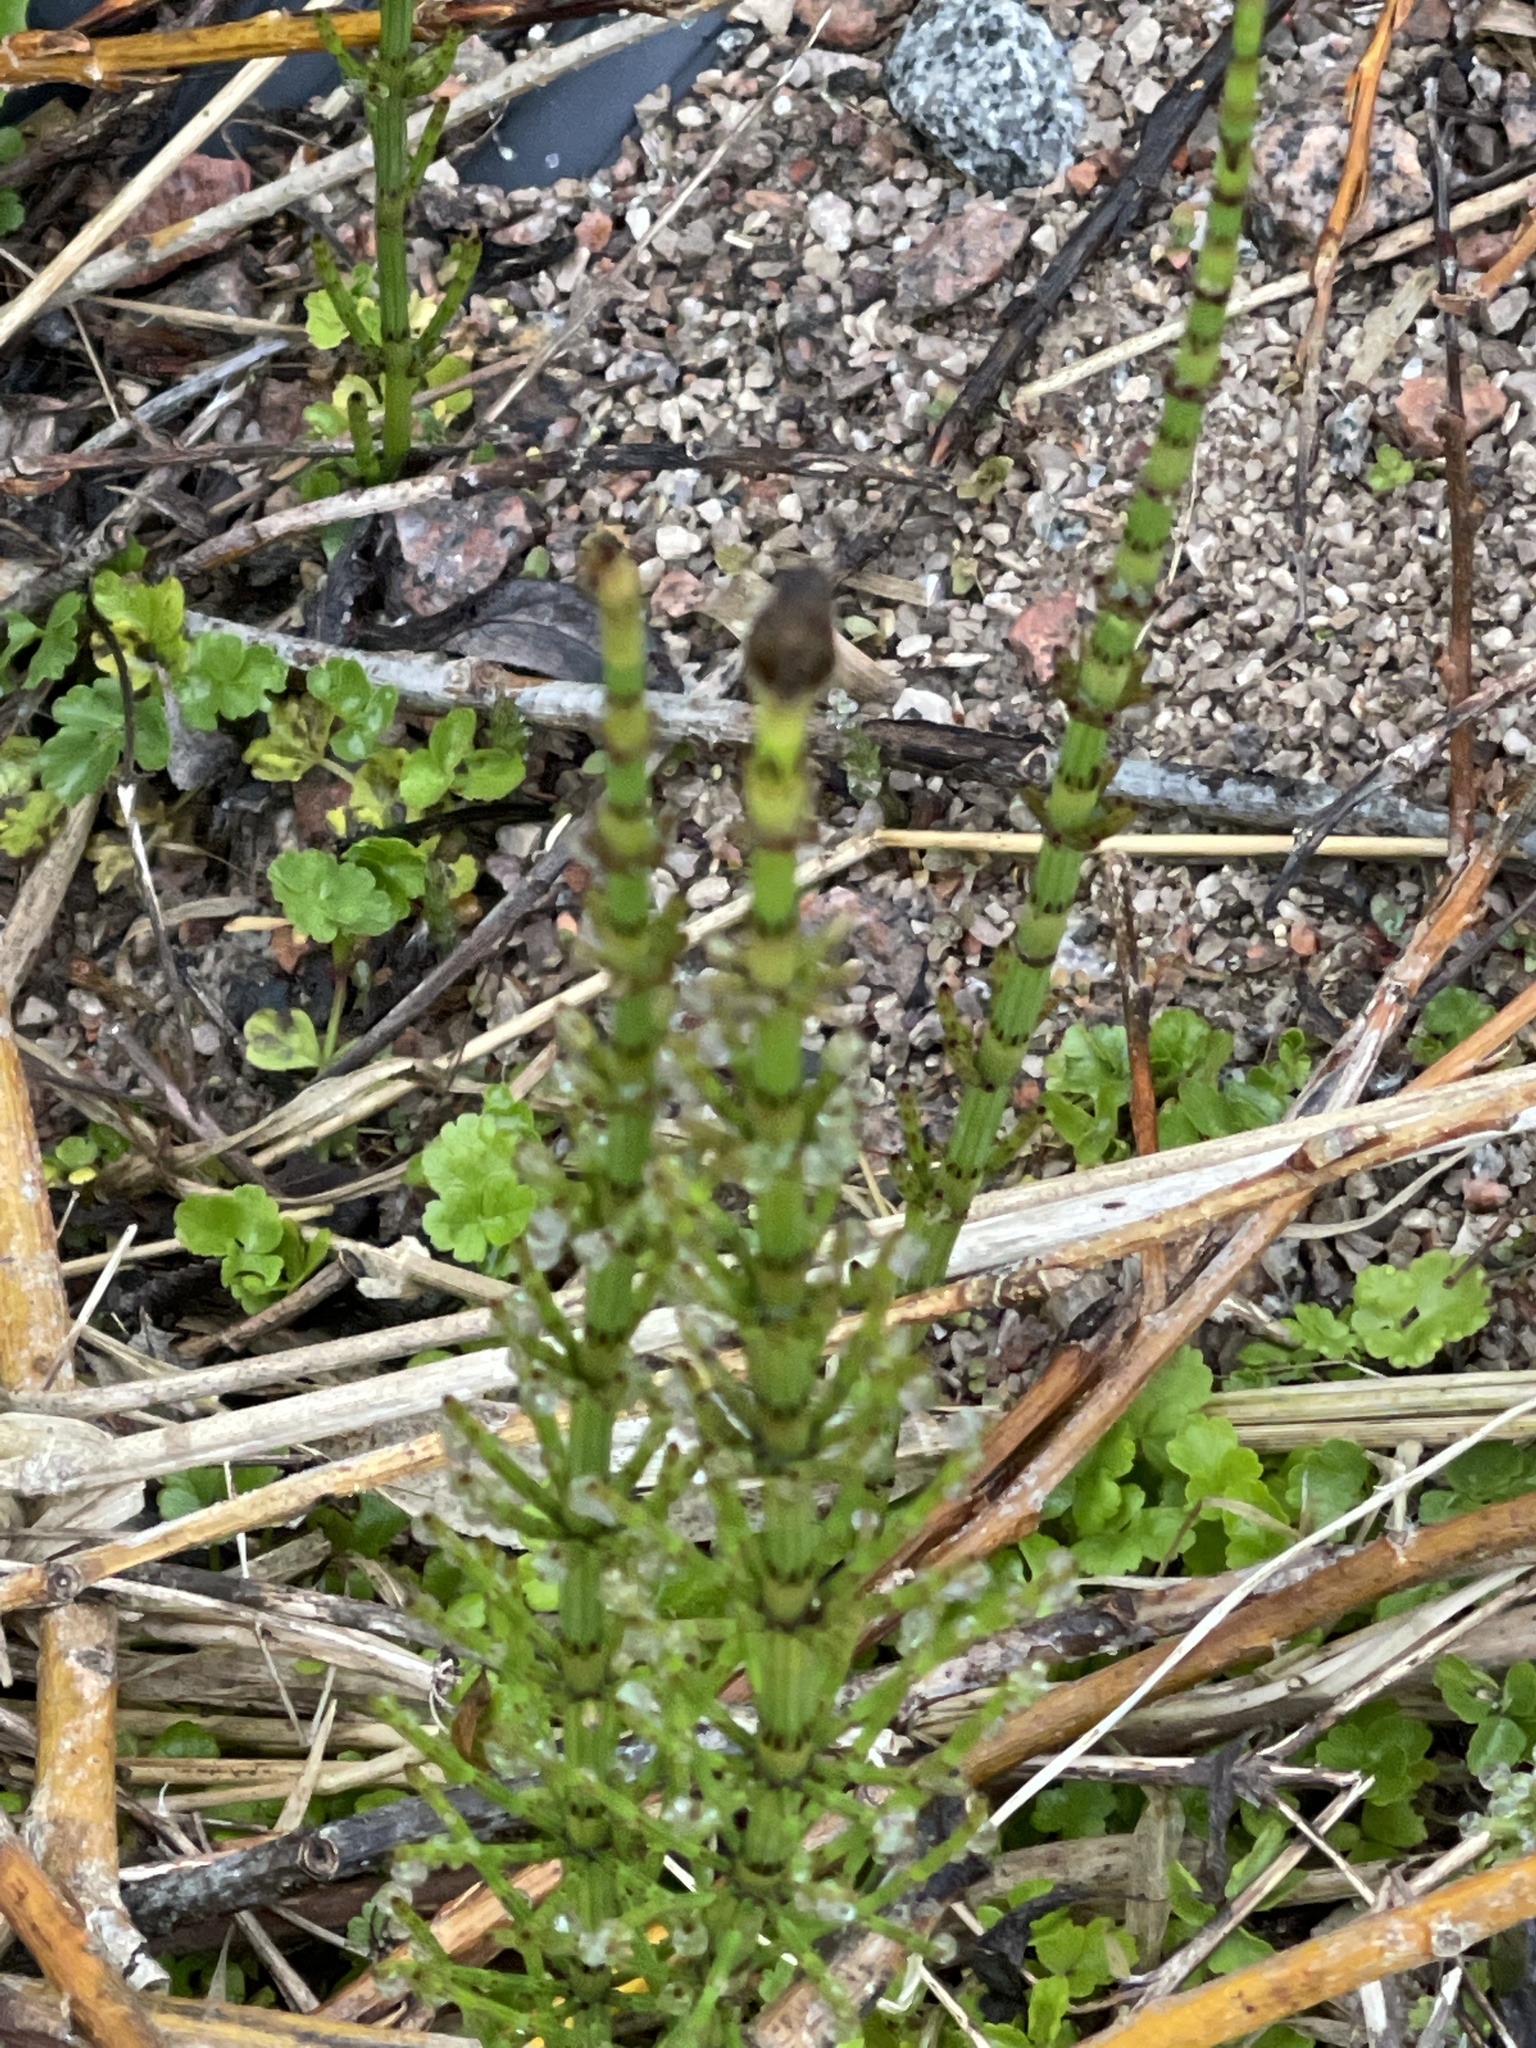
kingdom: Plantae
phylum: Tracheophyta
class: Polypodiopsida
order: Equisetales
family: Equisetaceae
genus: Equisetum
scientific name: Equisetum palustre
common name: Marsh horsetail
